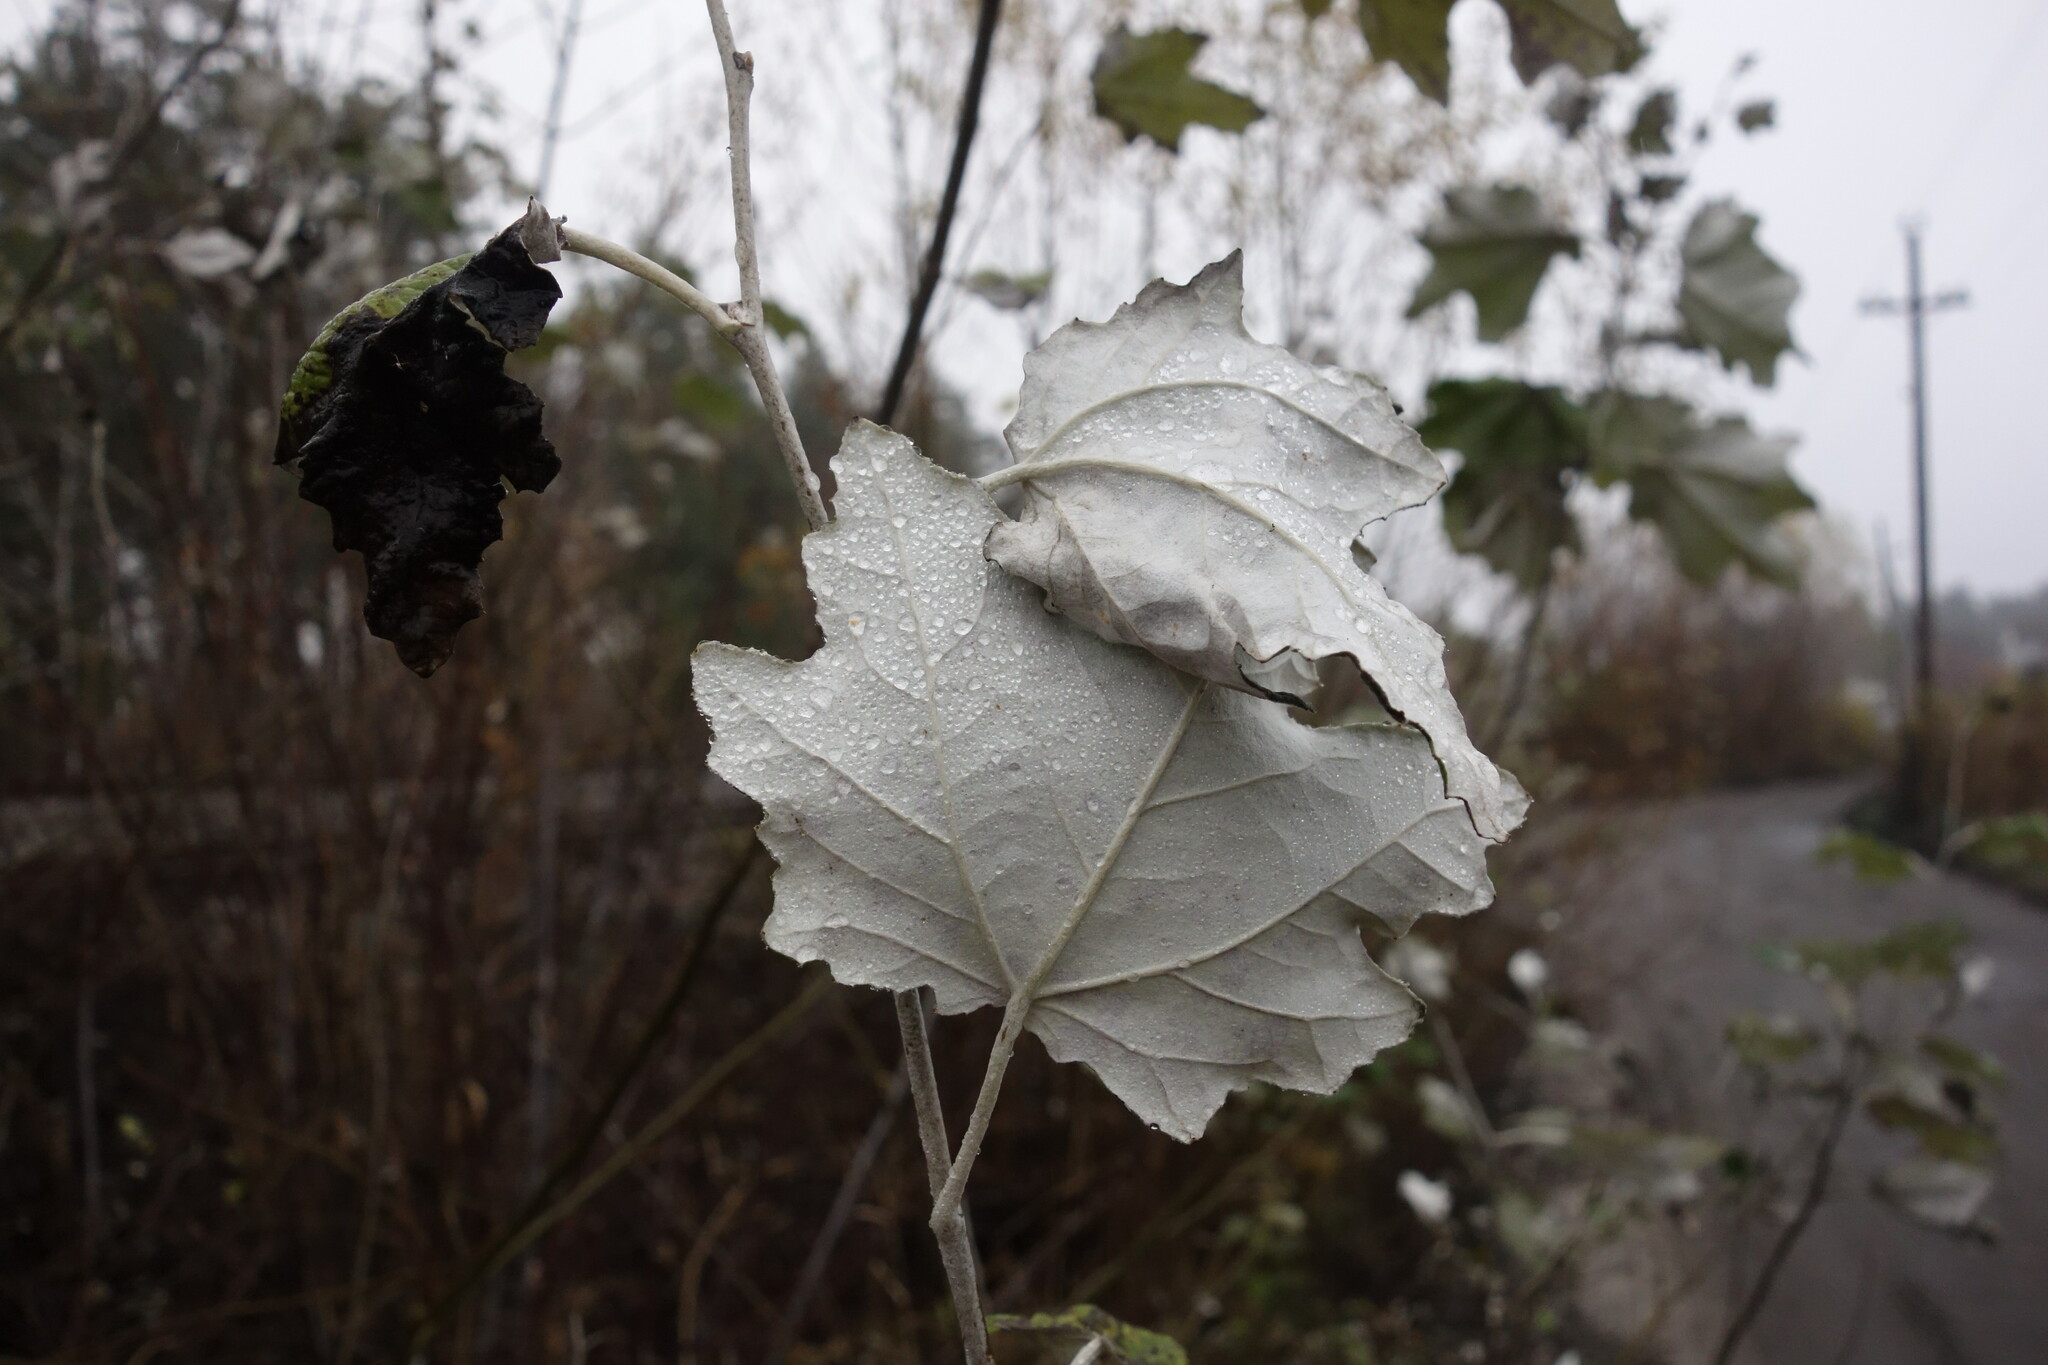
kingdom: Plantae
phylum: Tracheophyta
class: Magnoliopsida
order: Malpighiales
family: Salicaceae
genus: Populus
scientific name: Populus alba
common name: White poplar
